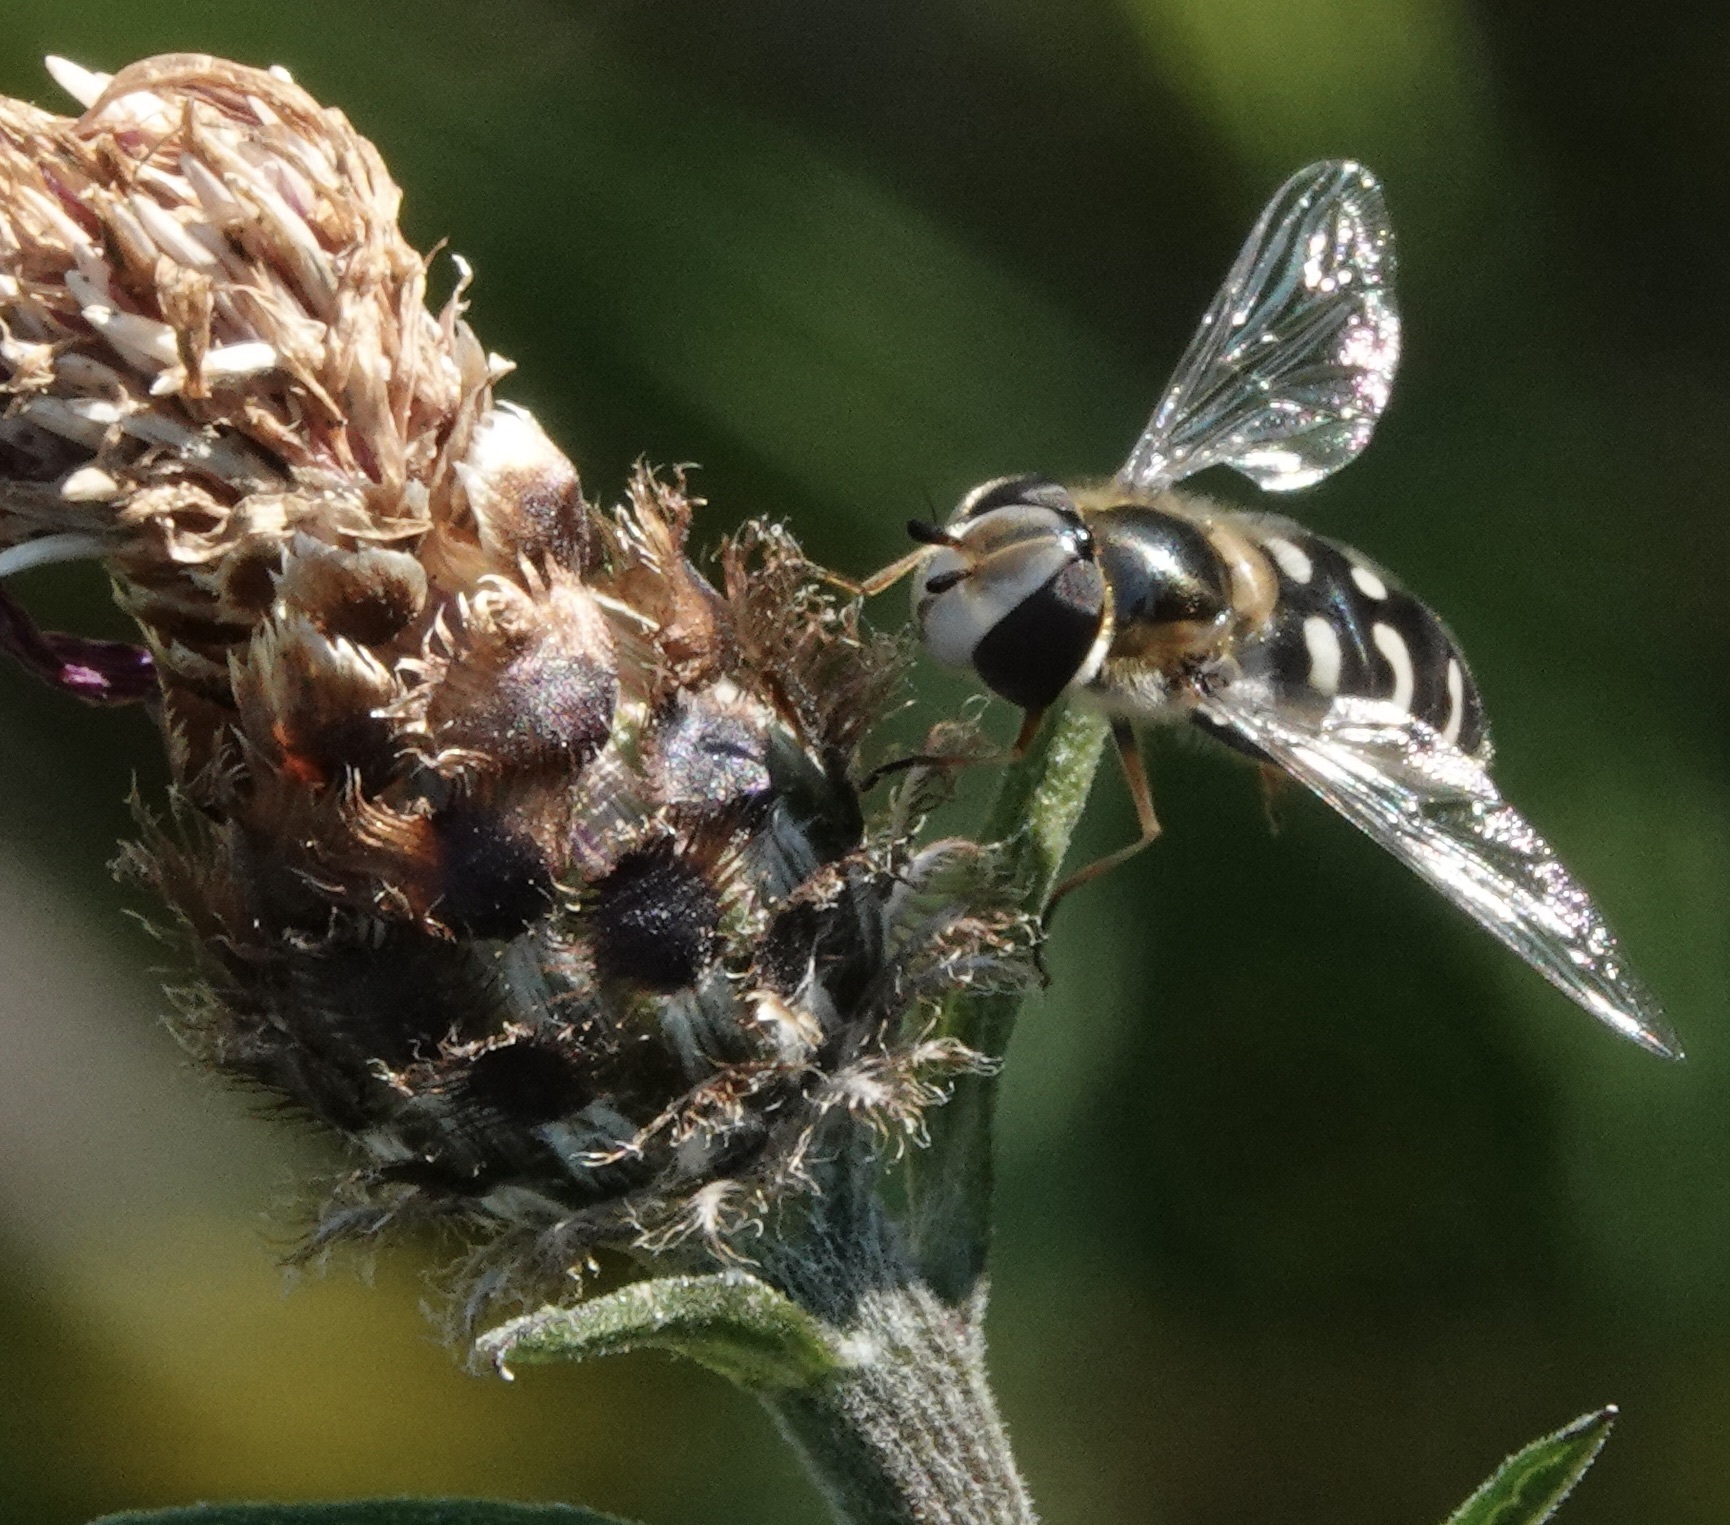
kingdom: Animalia
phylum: Arthropoda
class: Insecta
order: Diptera
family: Syrphidae
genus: Scaeva
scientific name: Scaeva pyrastri
